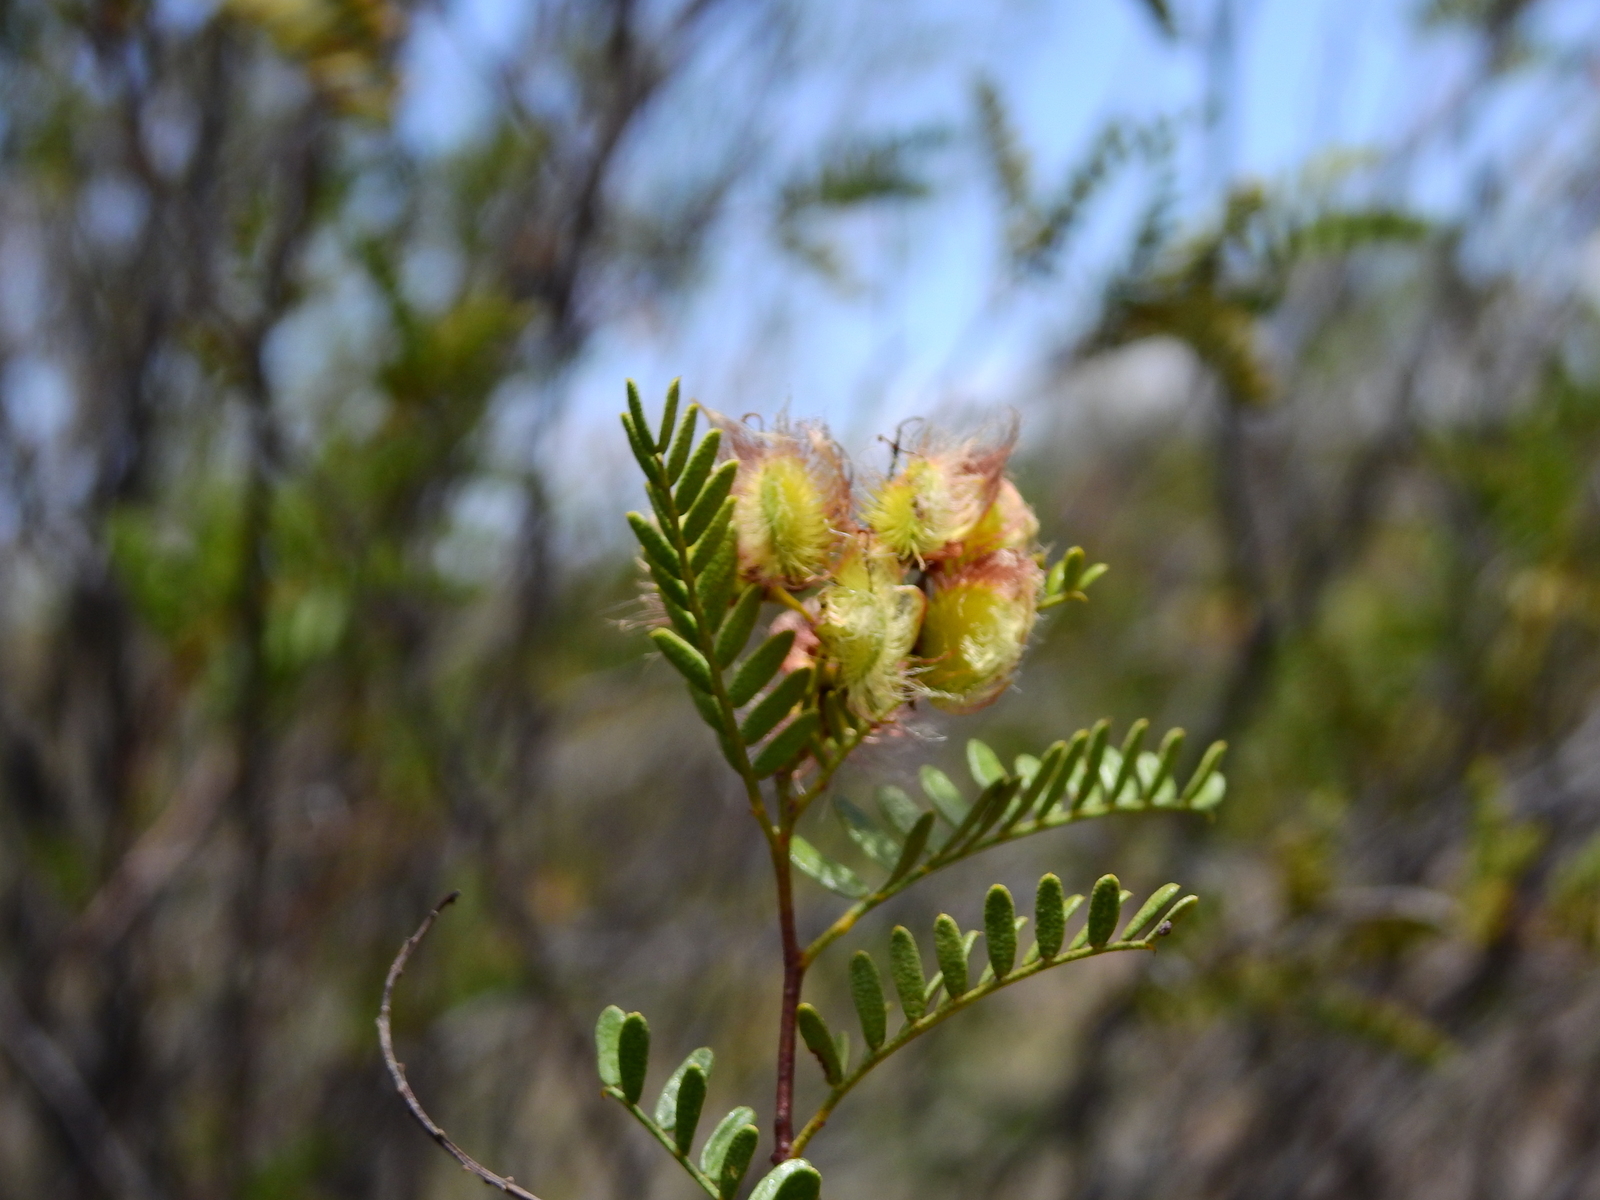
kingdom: Plantae
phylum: Tracheophyta
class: Magnoliopsida
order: Fabales
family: Fabaceae
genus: Zuccagnia
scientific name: Zuccagnia punctata
